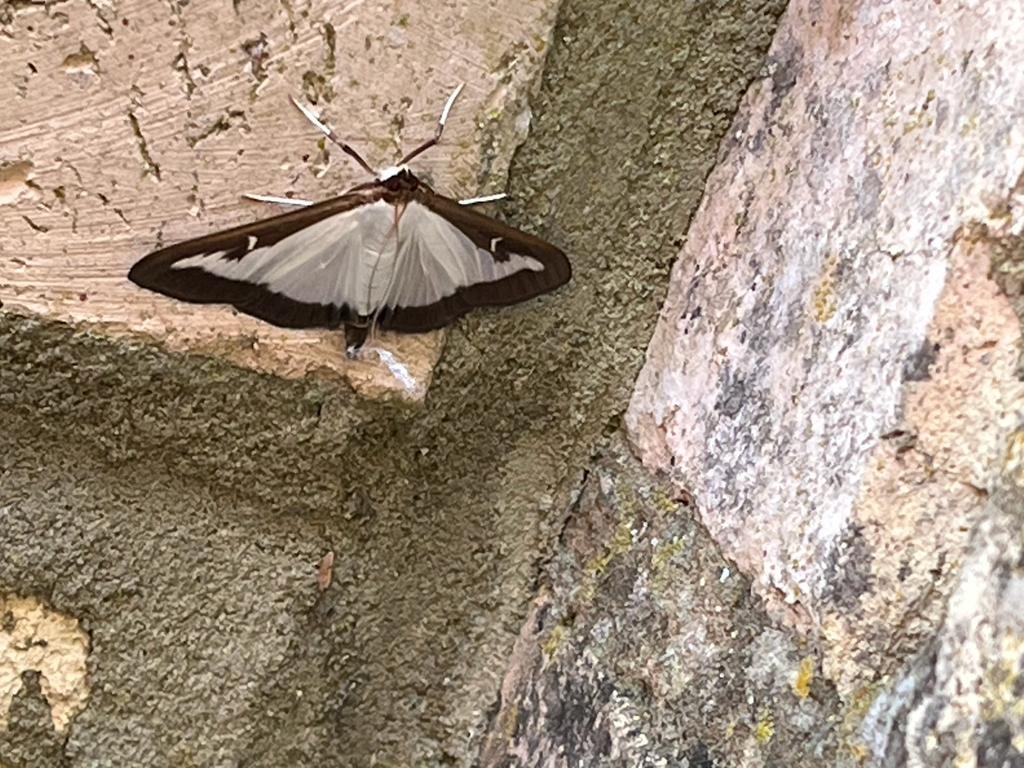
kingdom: Animalia
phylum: Arthropoda
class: Insecta
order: Lepidoptera
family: Crambidae
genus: Cydalima
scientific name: Cydalima perspectalis
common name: Box tree moth
